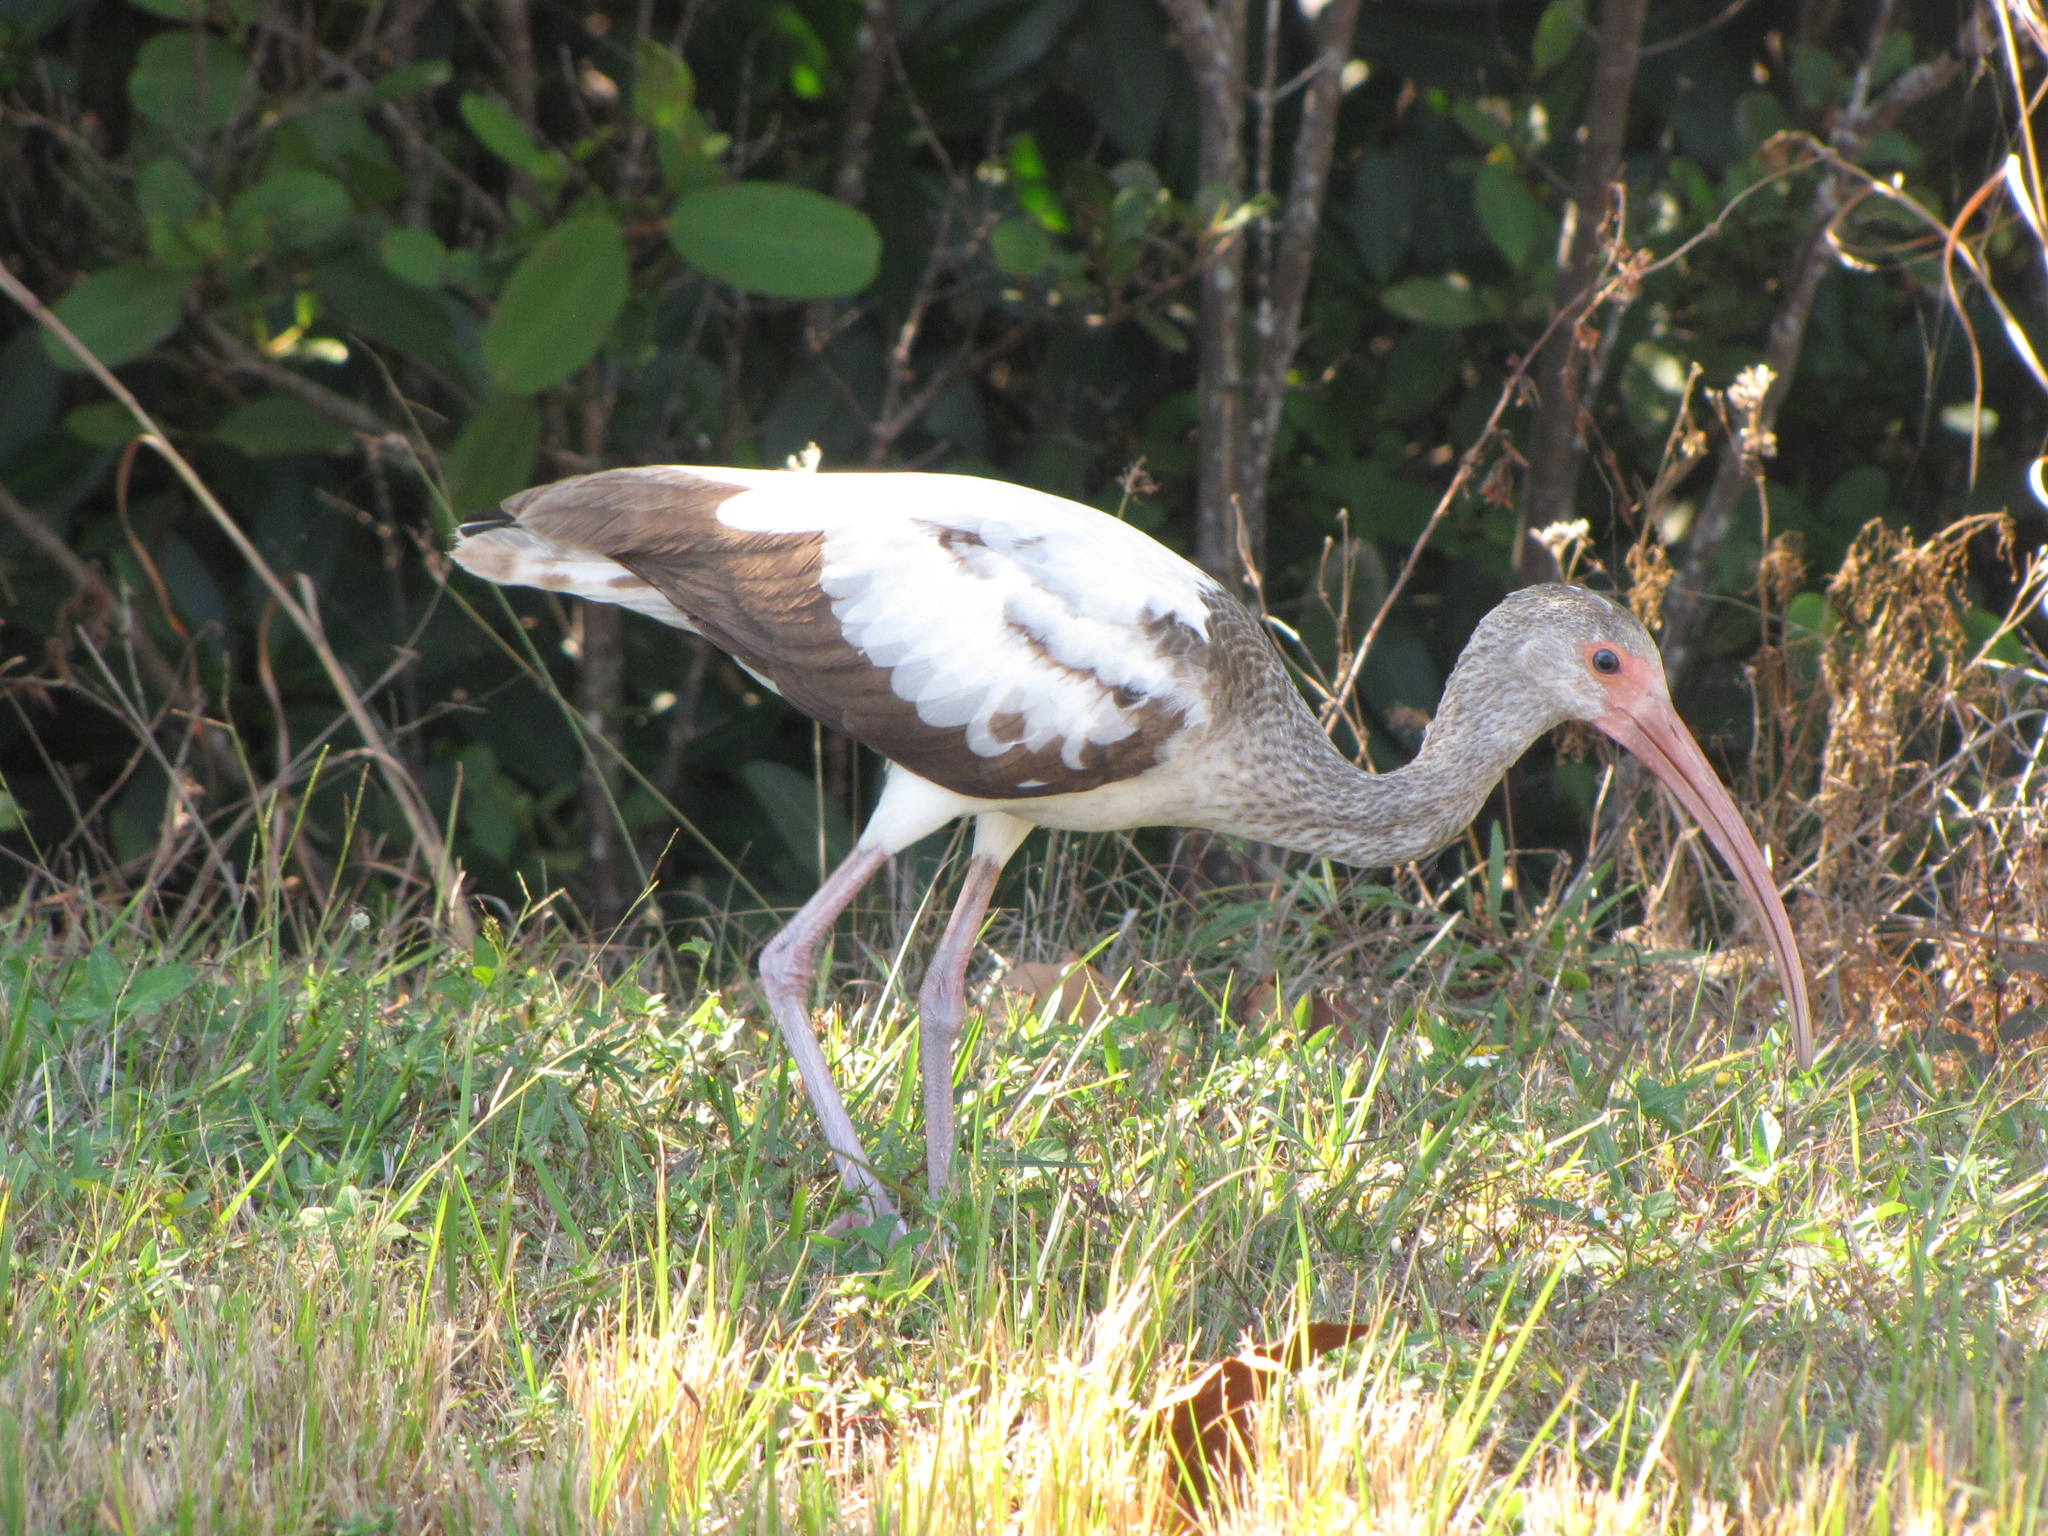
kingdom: Animalia
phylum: Chordata
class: Aves
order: Pelecaniformes
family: Threskiornithidae
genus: Eudocimus
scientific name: Eudocimus albus
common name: White ibis
